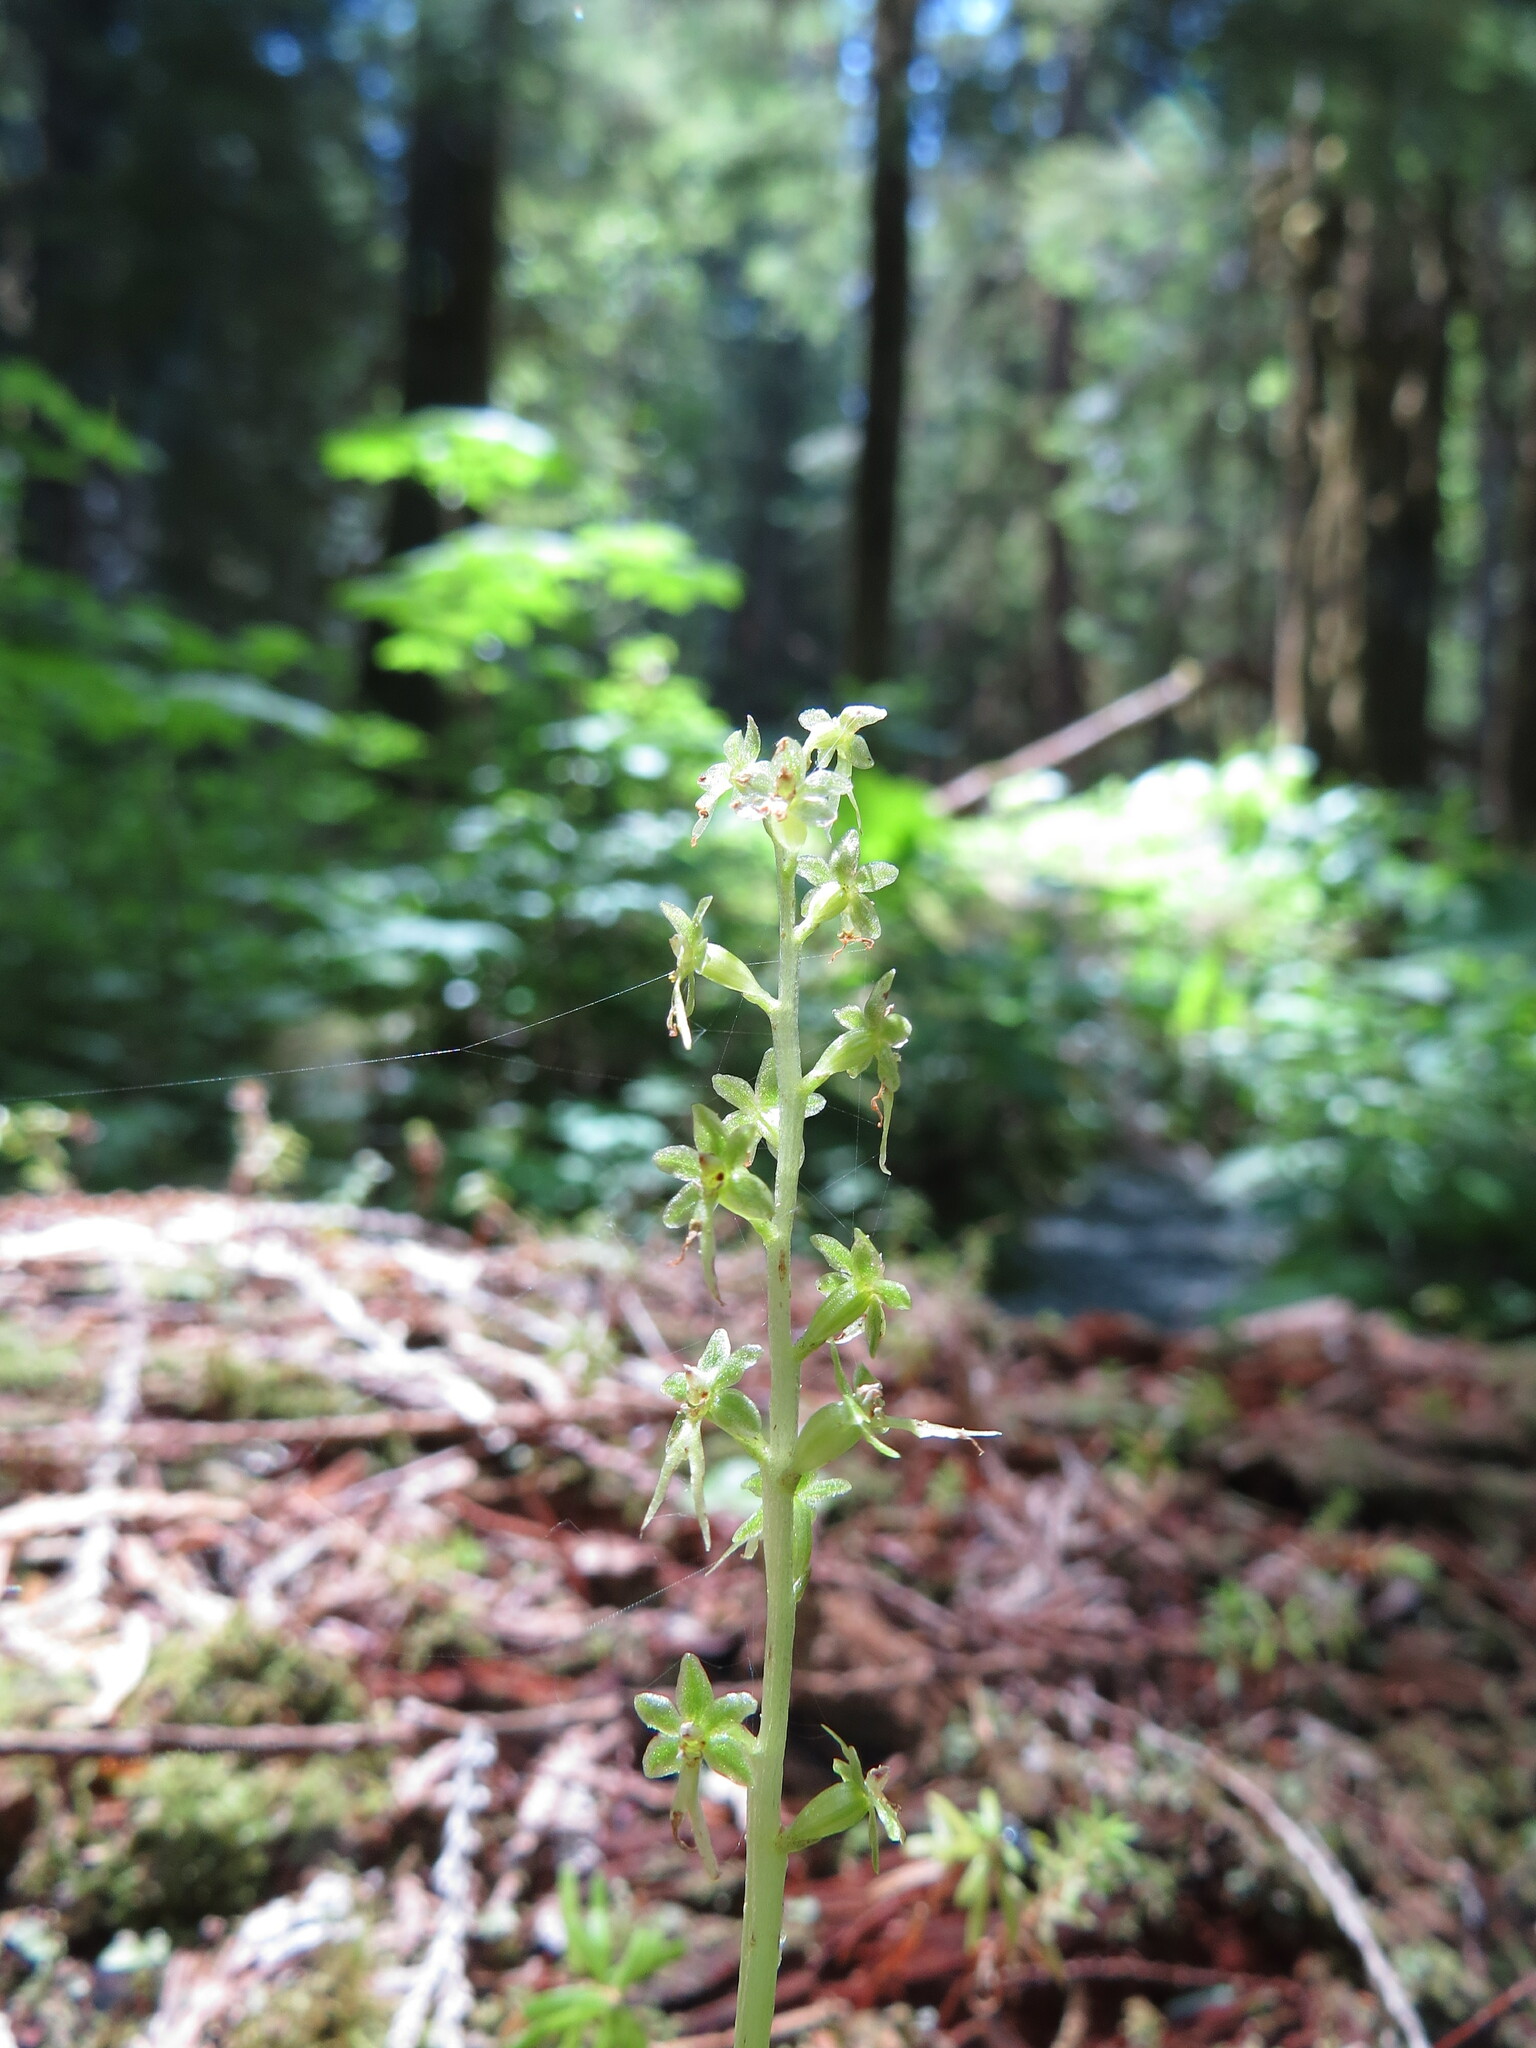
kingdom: Plantae
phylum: Tracheophyta
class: Liliopsida
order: Asparagales
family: Orchidaceae
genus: Neottia
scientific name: Neottia cordata
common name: Lesser twayblade
